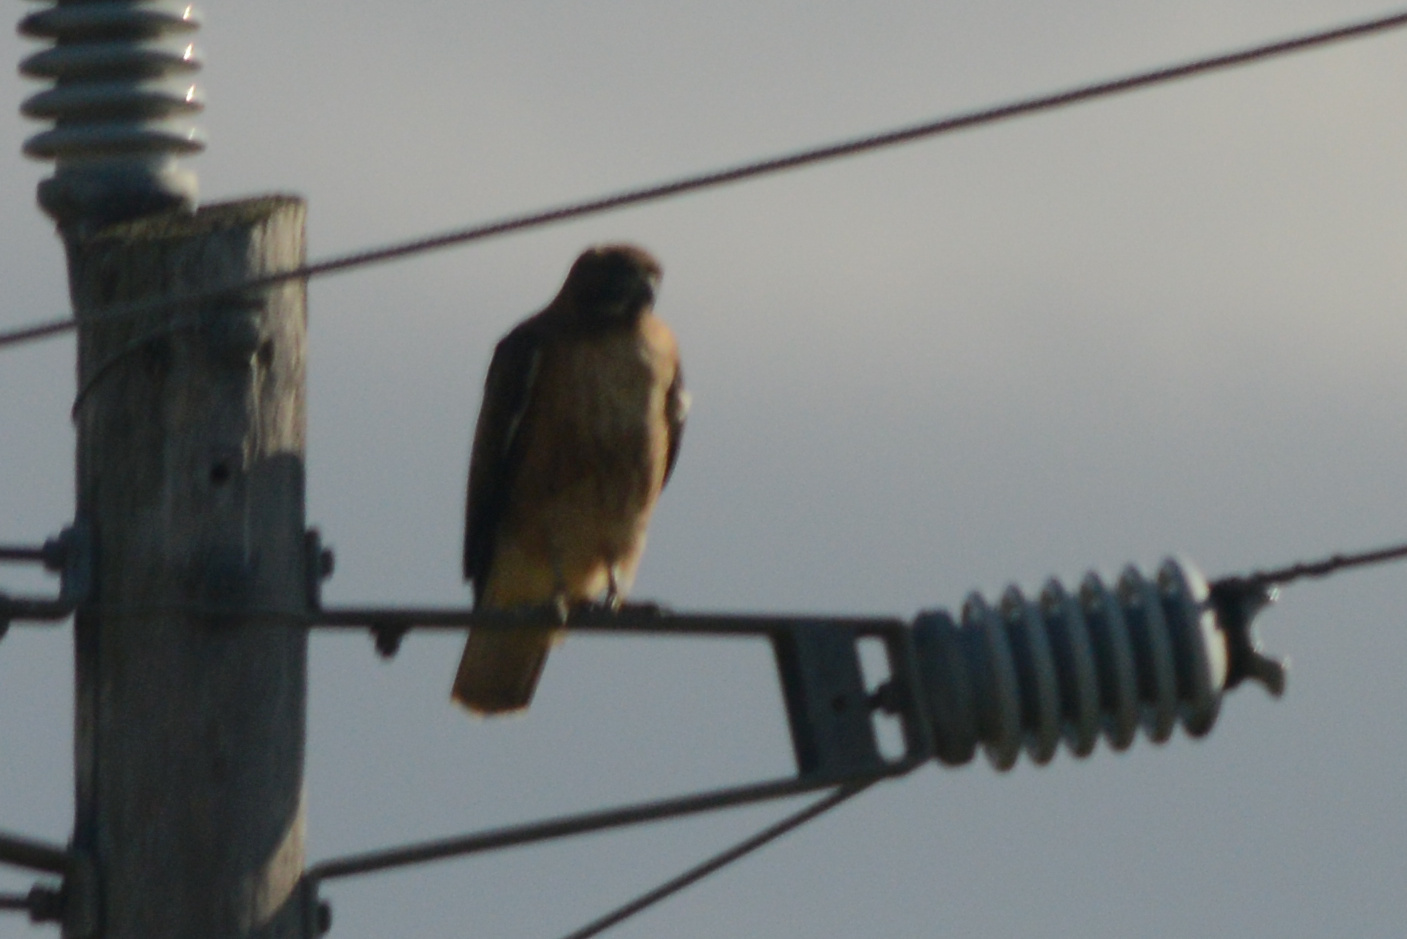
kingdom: Animalia
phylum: Chordata
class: Aves
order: Accipitriformes
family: Accipitridae
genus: Buteo
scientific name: Buteo jamaicensis
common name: Red-tailed hawk
